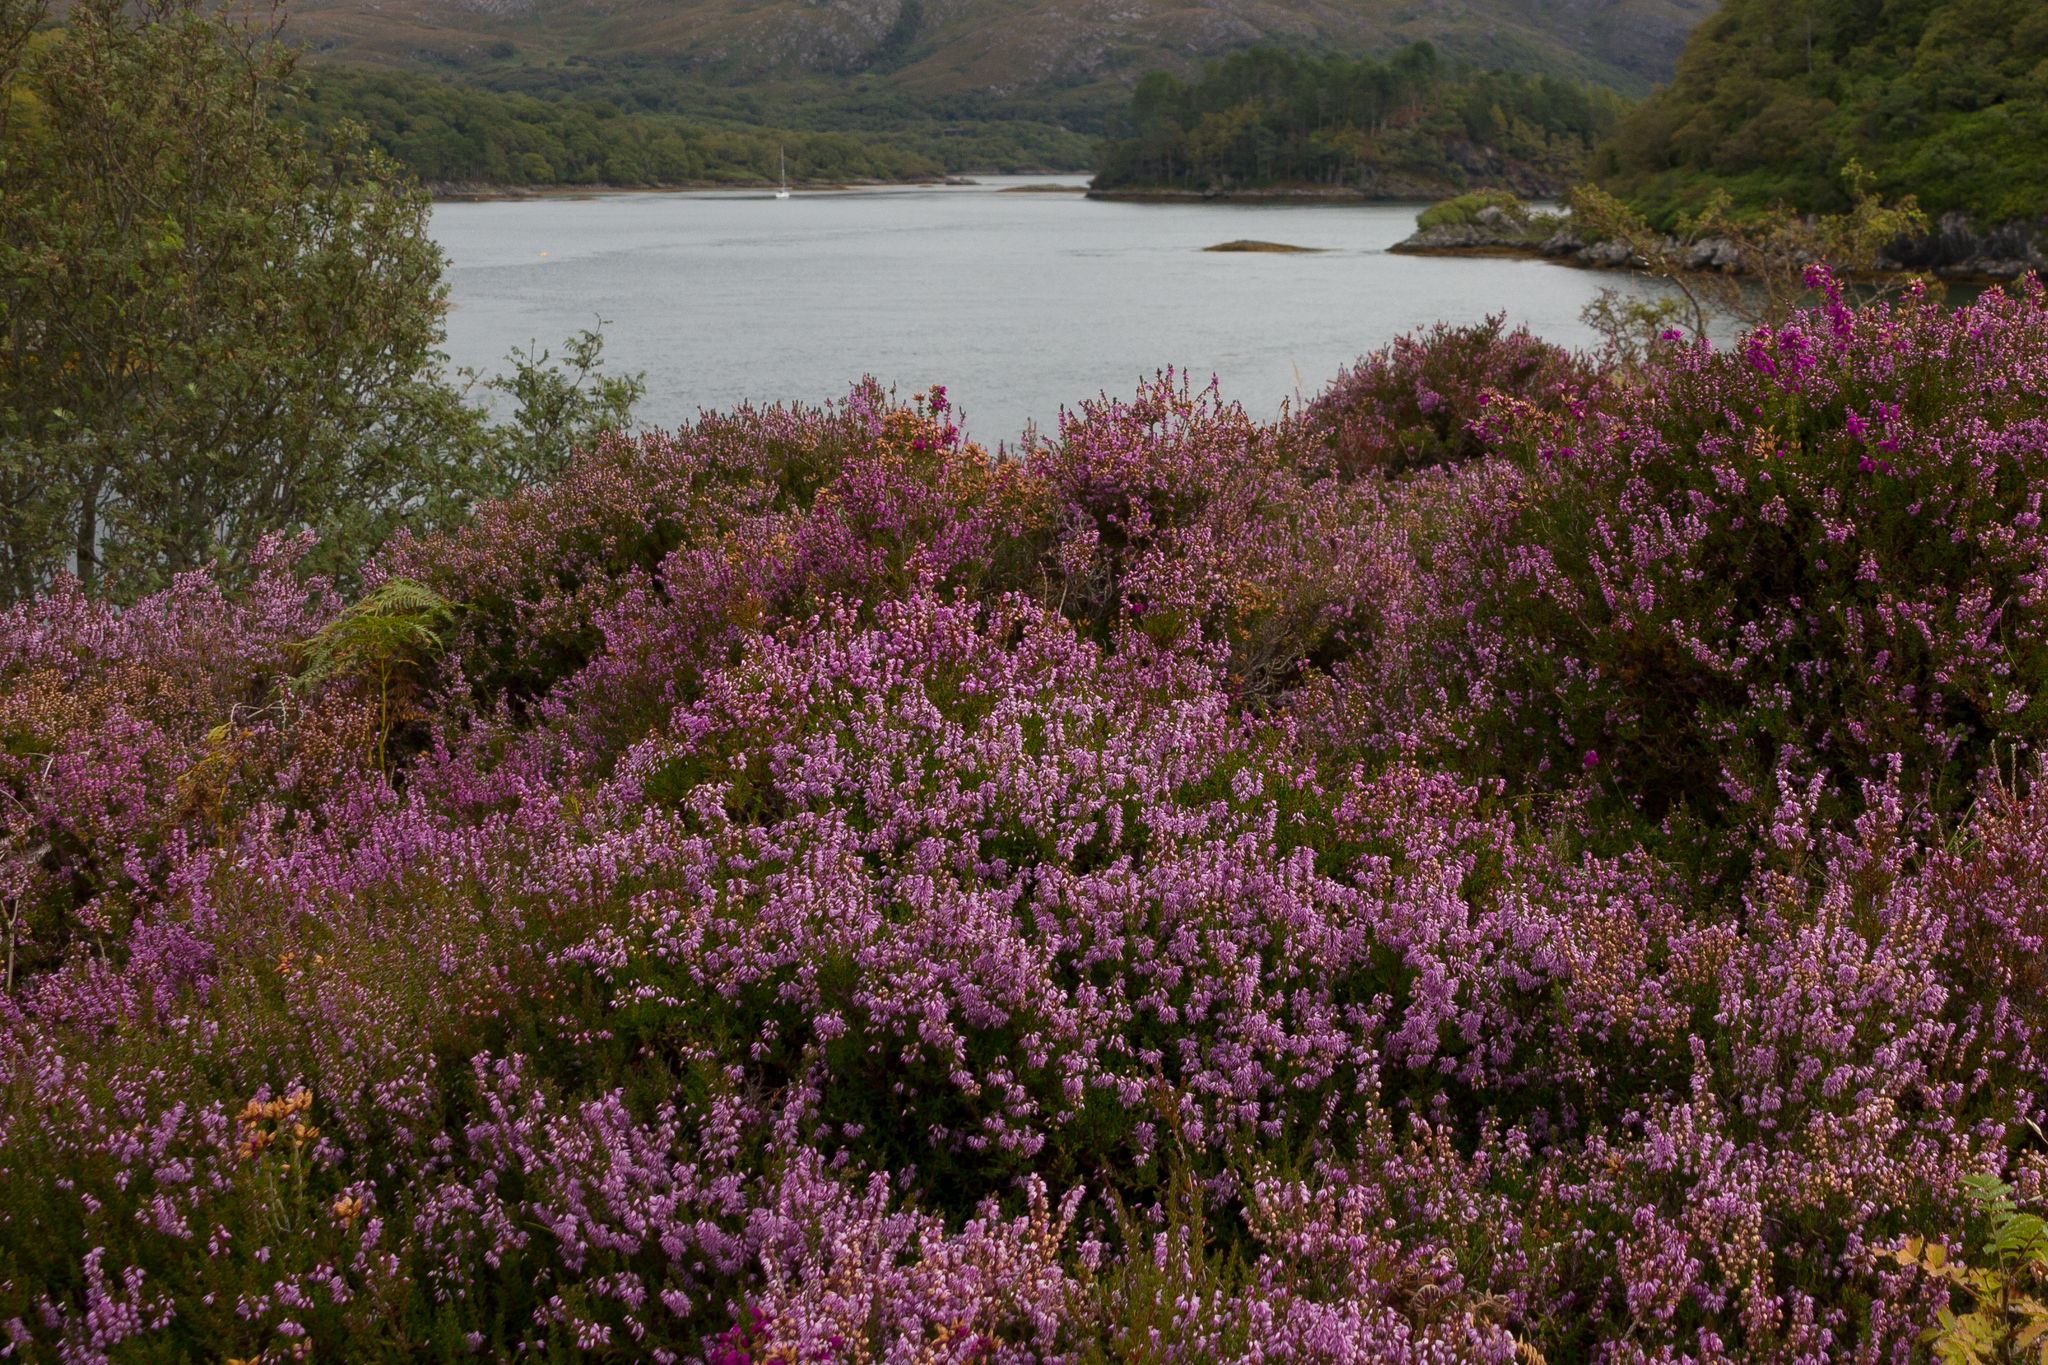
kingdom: Plantae
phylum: Tracheophyta
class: Magnoliopsida
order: Ericales
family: Ericaceae
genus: Calluna
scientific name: Calluna vulgaris
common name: Heather
